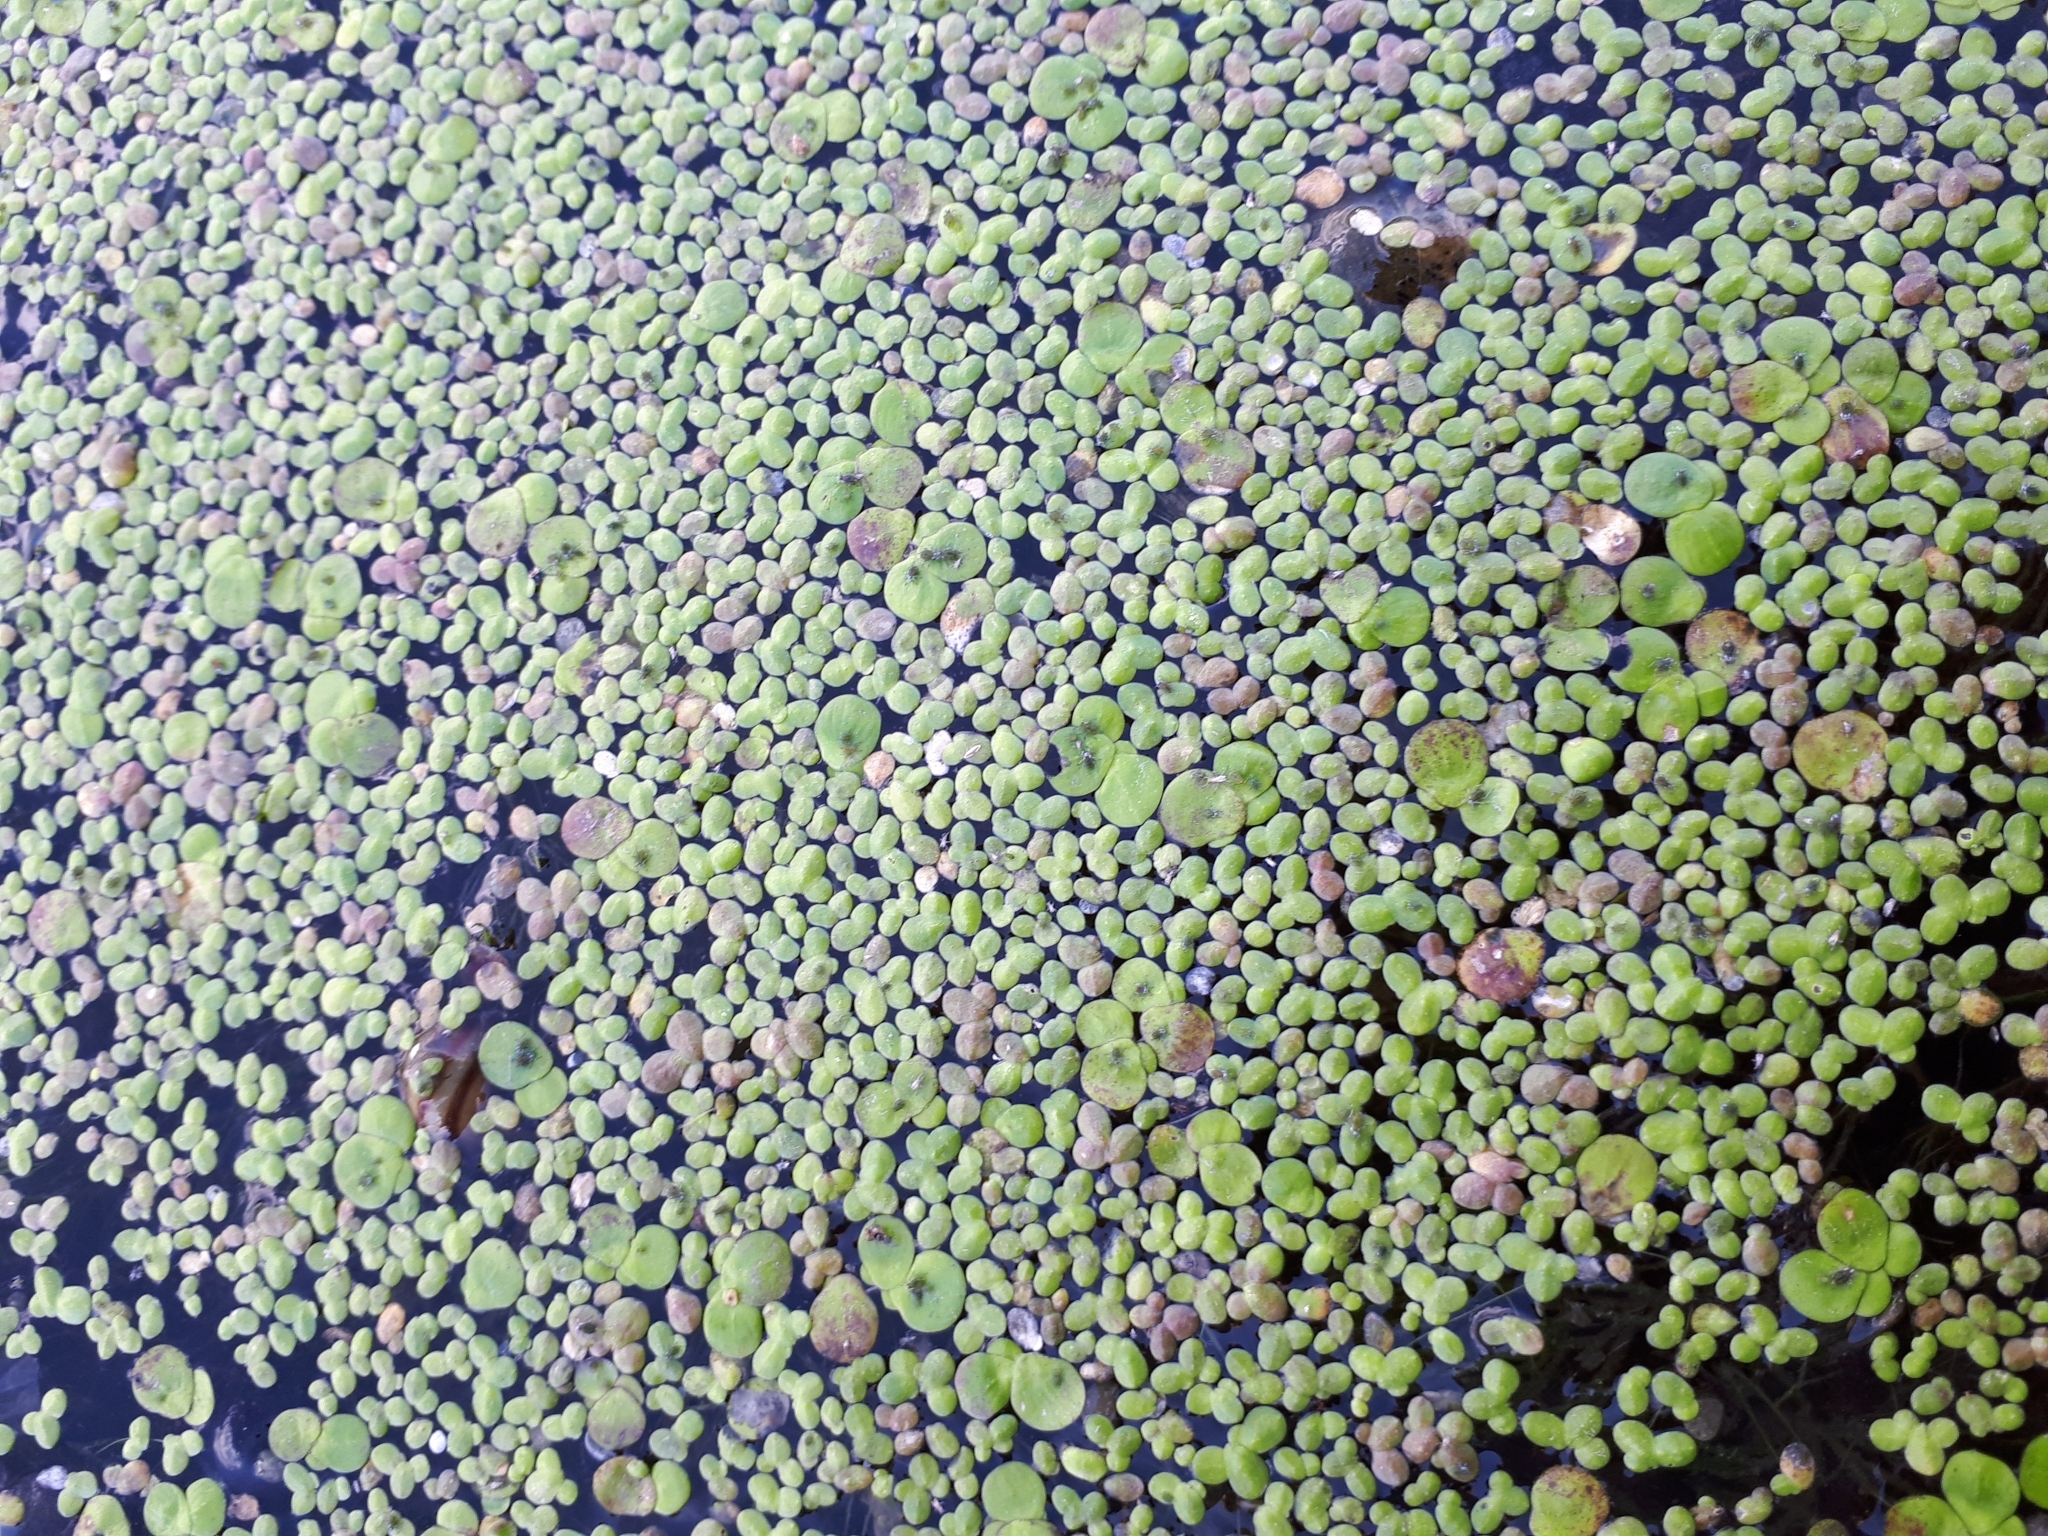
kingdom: Plantae
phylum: Tracheophyta
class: Liliopsida
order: Alismatales
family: Araceae
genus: Lemna
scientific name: Lemna minor
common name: Common duckweed
